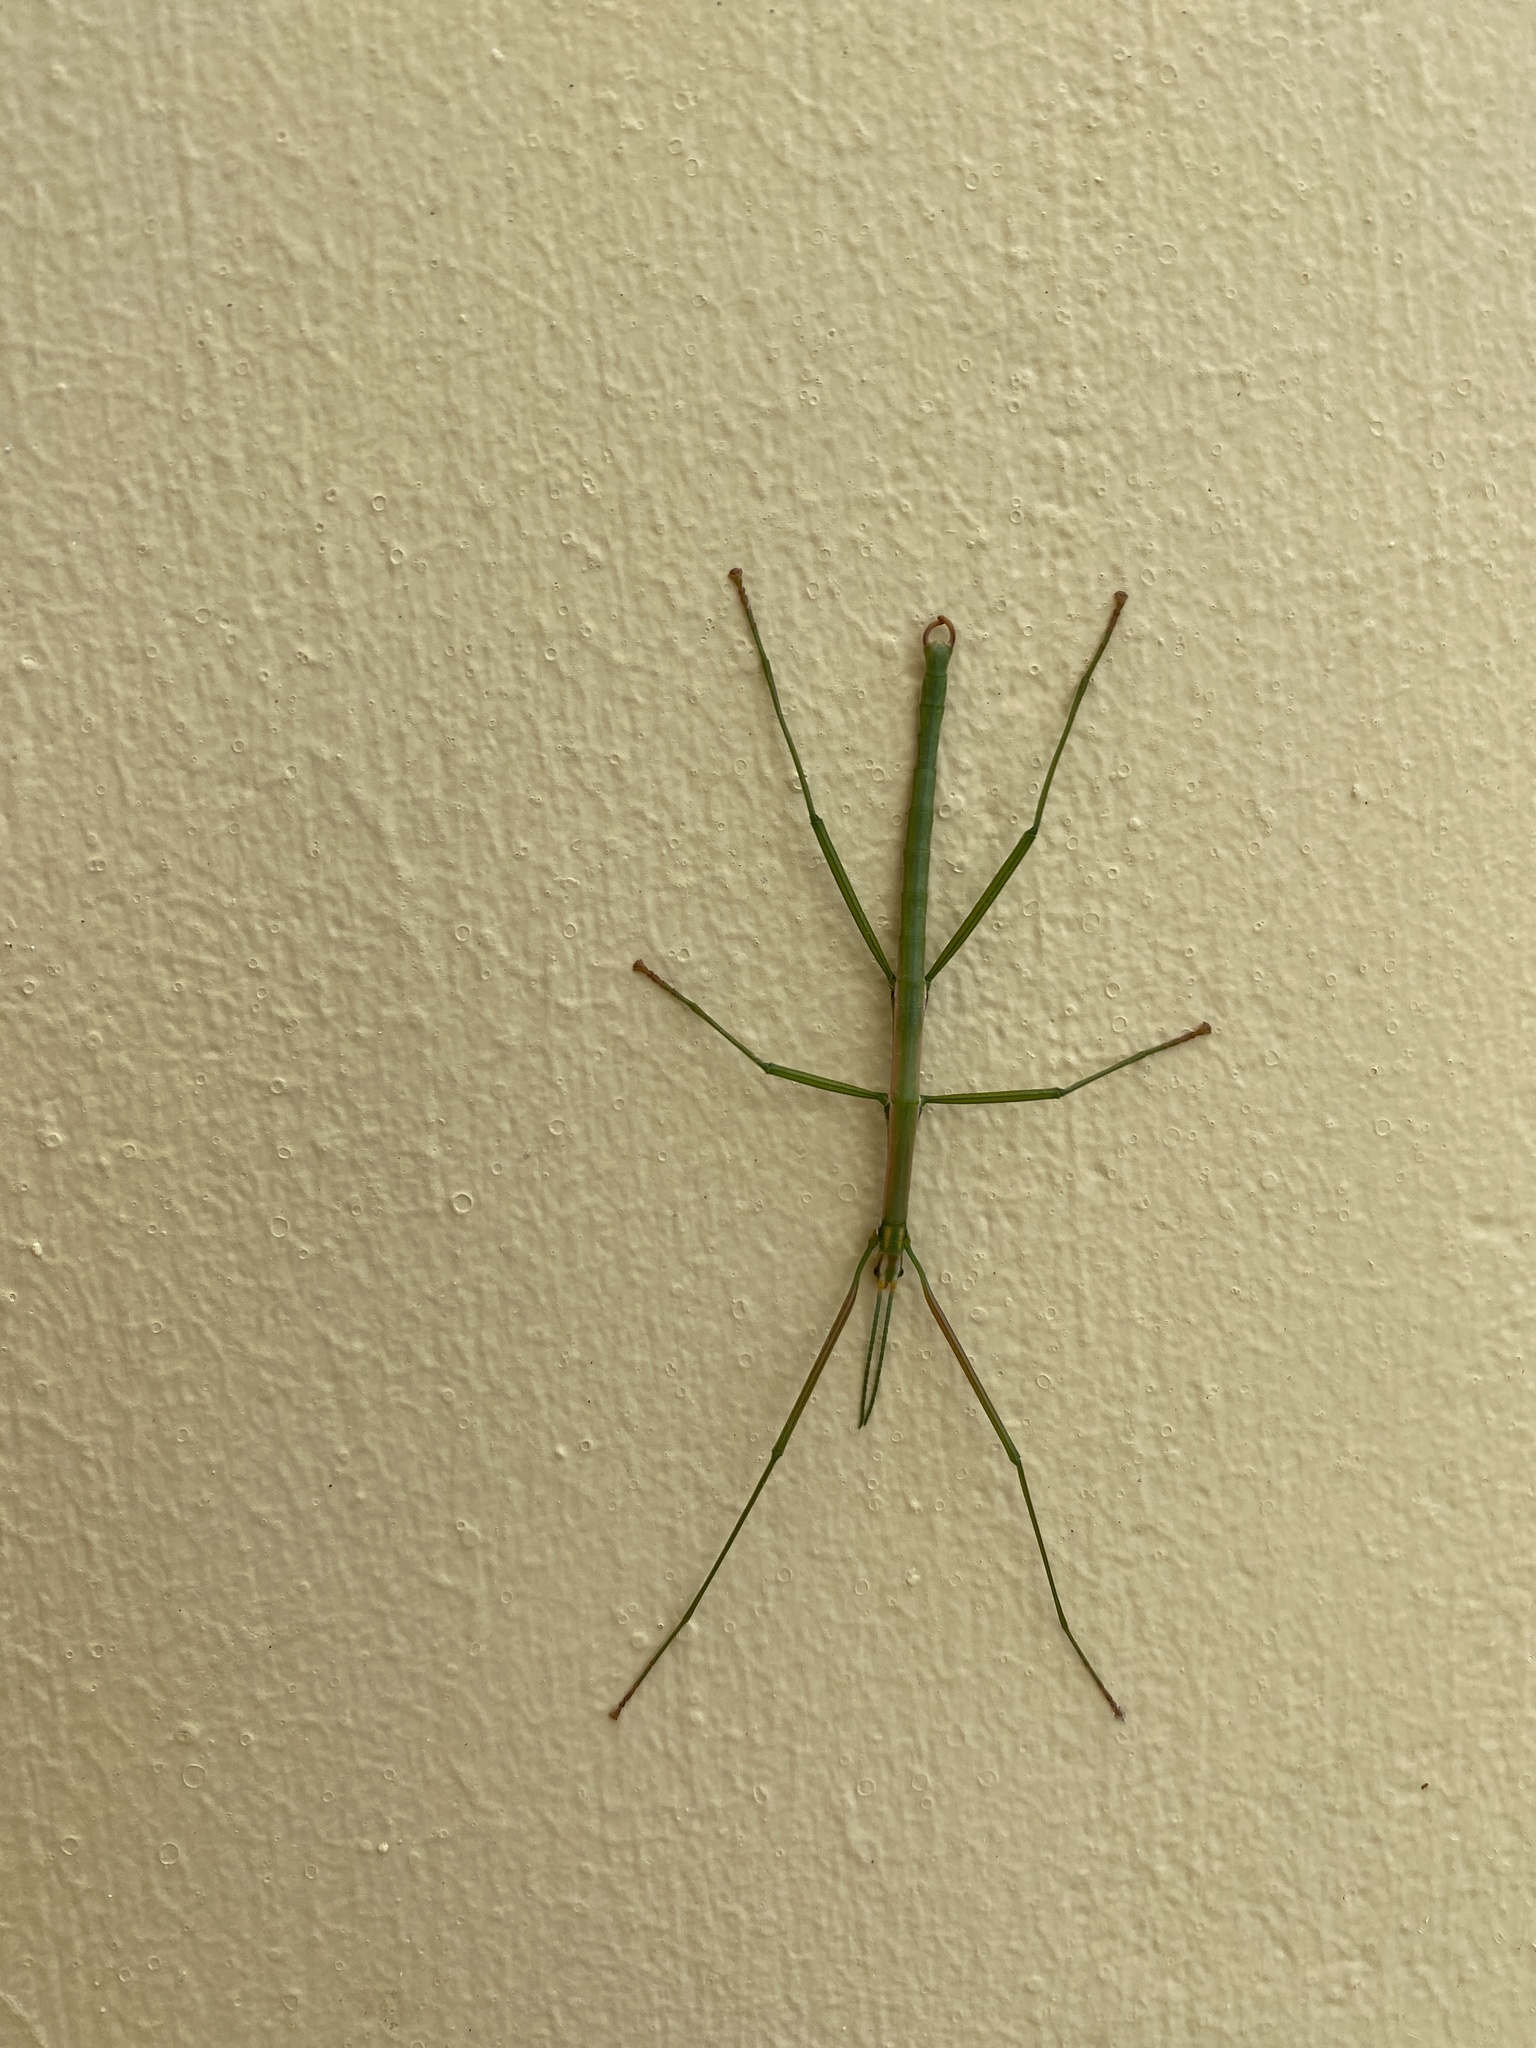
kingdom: Animalia
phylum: Arthropoda
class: Insecta
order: Phasmida
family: Bacillidae
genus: Macynia
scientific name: Macynia labiata
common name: Thunberg's stick insect
